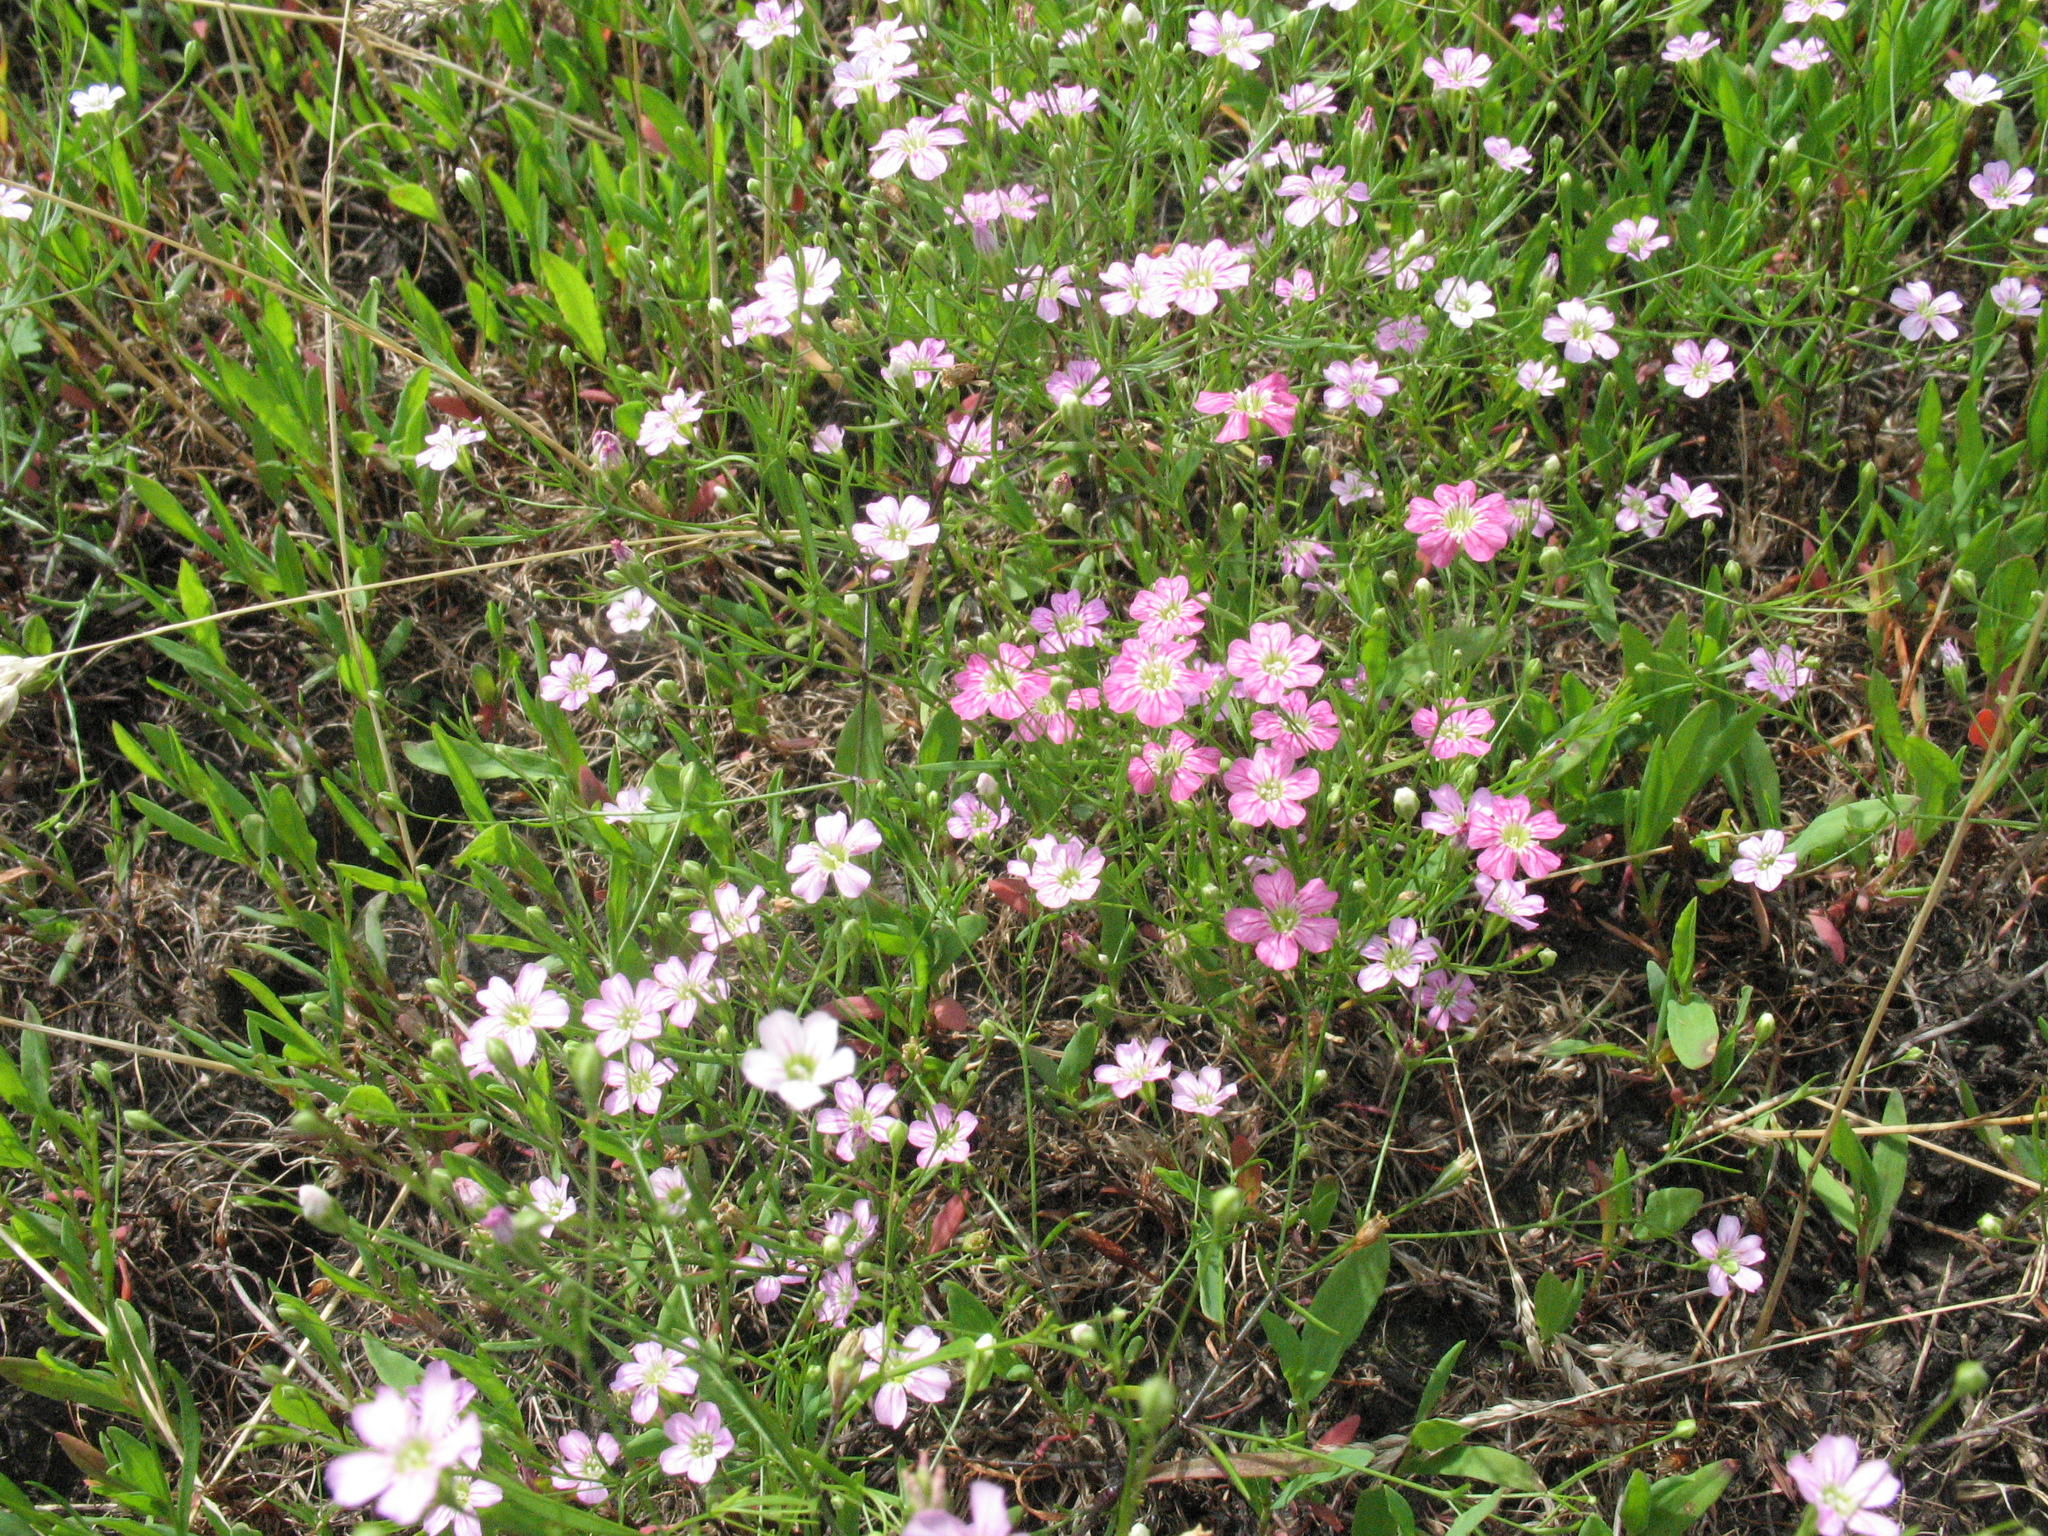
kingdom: Plantae
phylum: Tracheophyta
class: Magnoliopsida
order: Caryophyllales
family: Caryophyllaceae
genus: Psammophiliella
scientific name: Psammophiliella muralis
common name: Cushion baby's-breath
